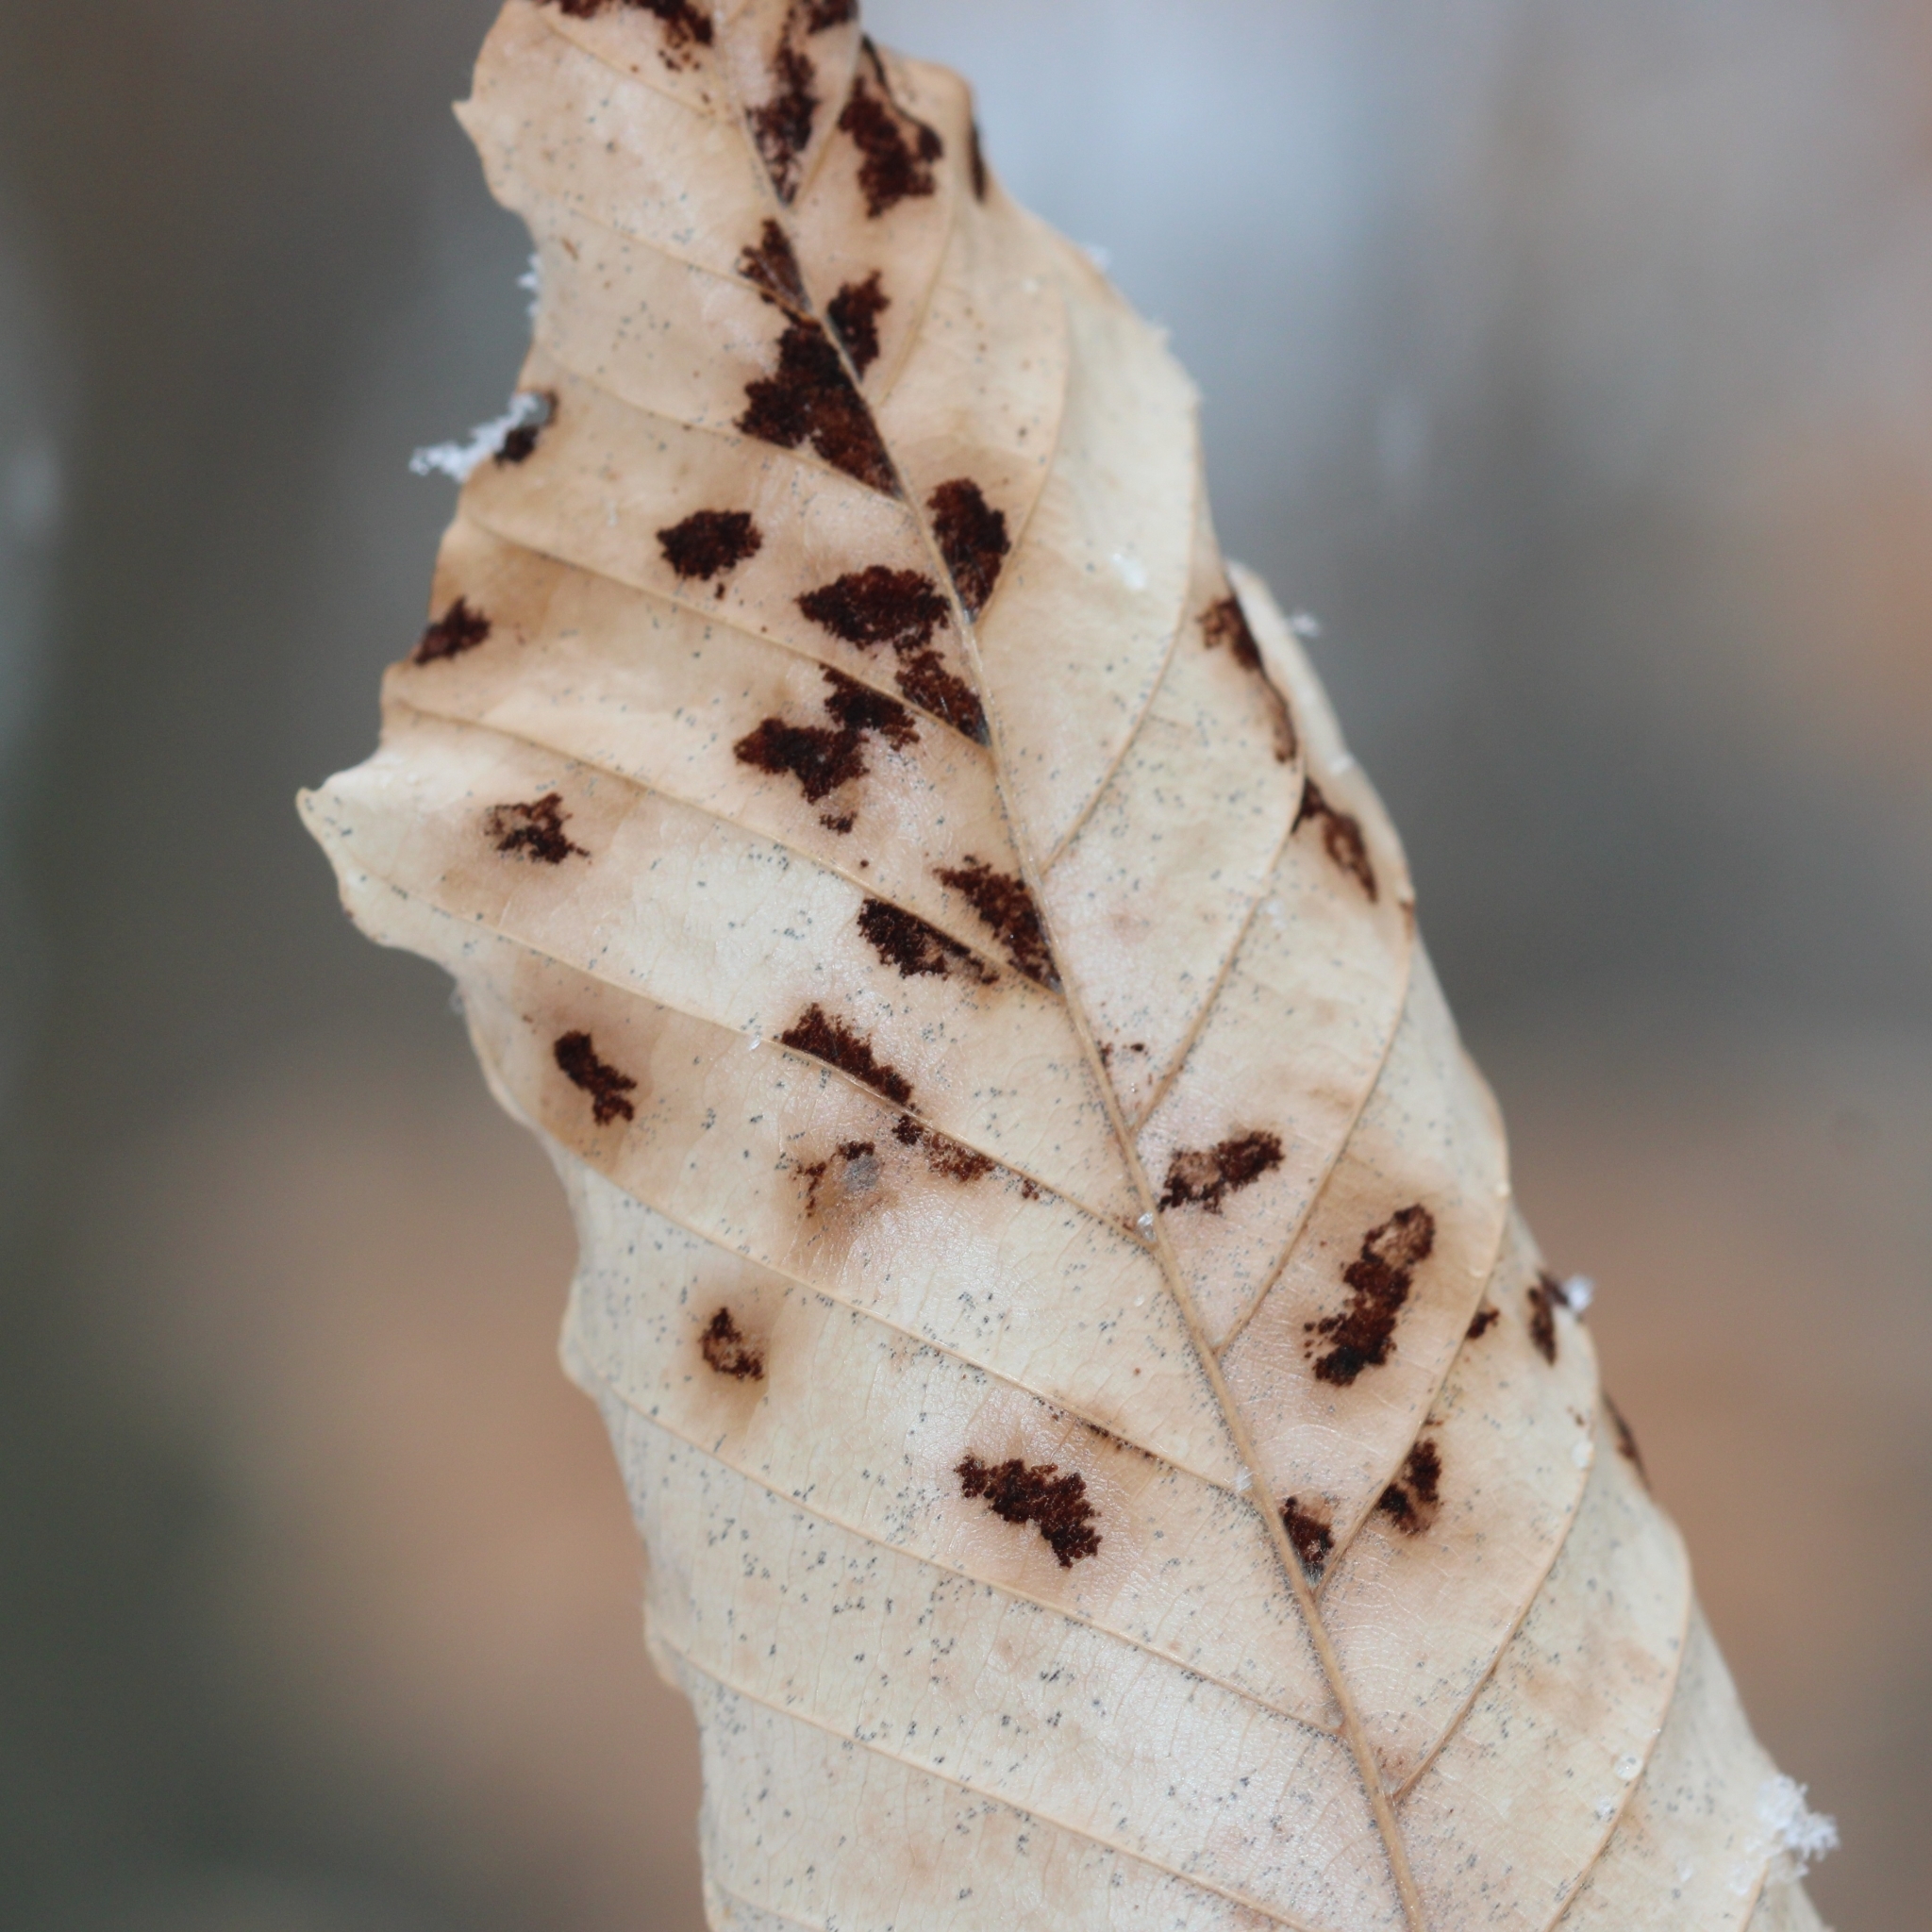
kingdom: Animalia
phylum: Arthropoda
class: Arachnida
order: Trombidiformes
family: Eriophyidae
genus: Acalitus
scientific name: Acalitus
